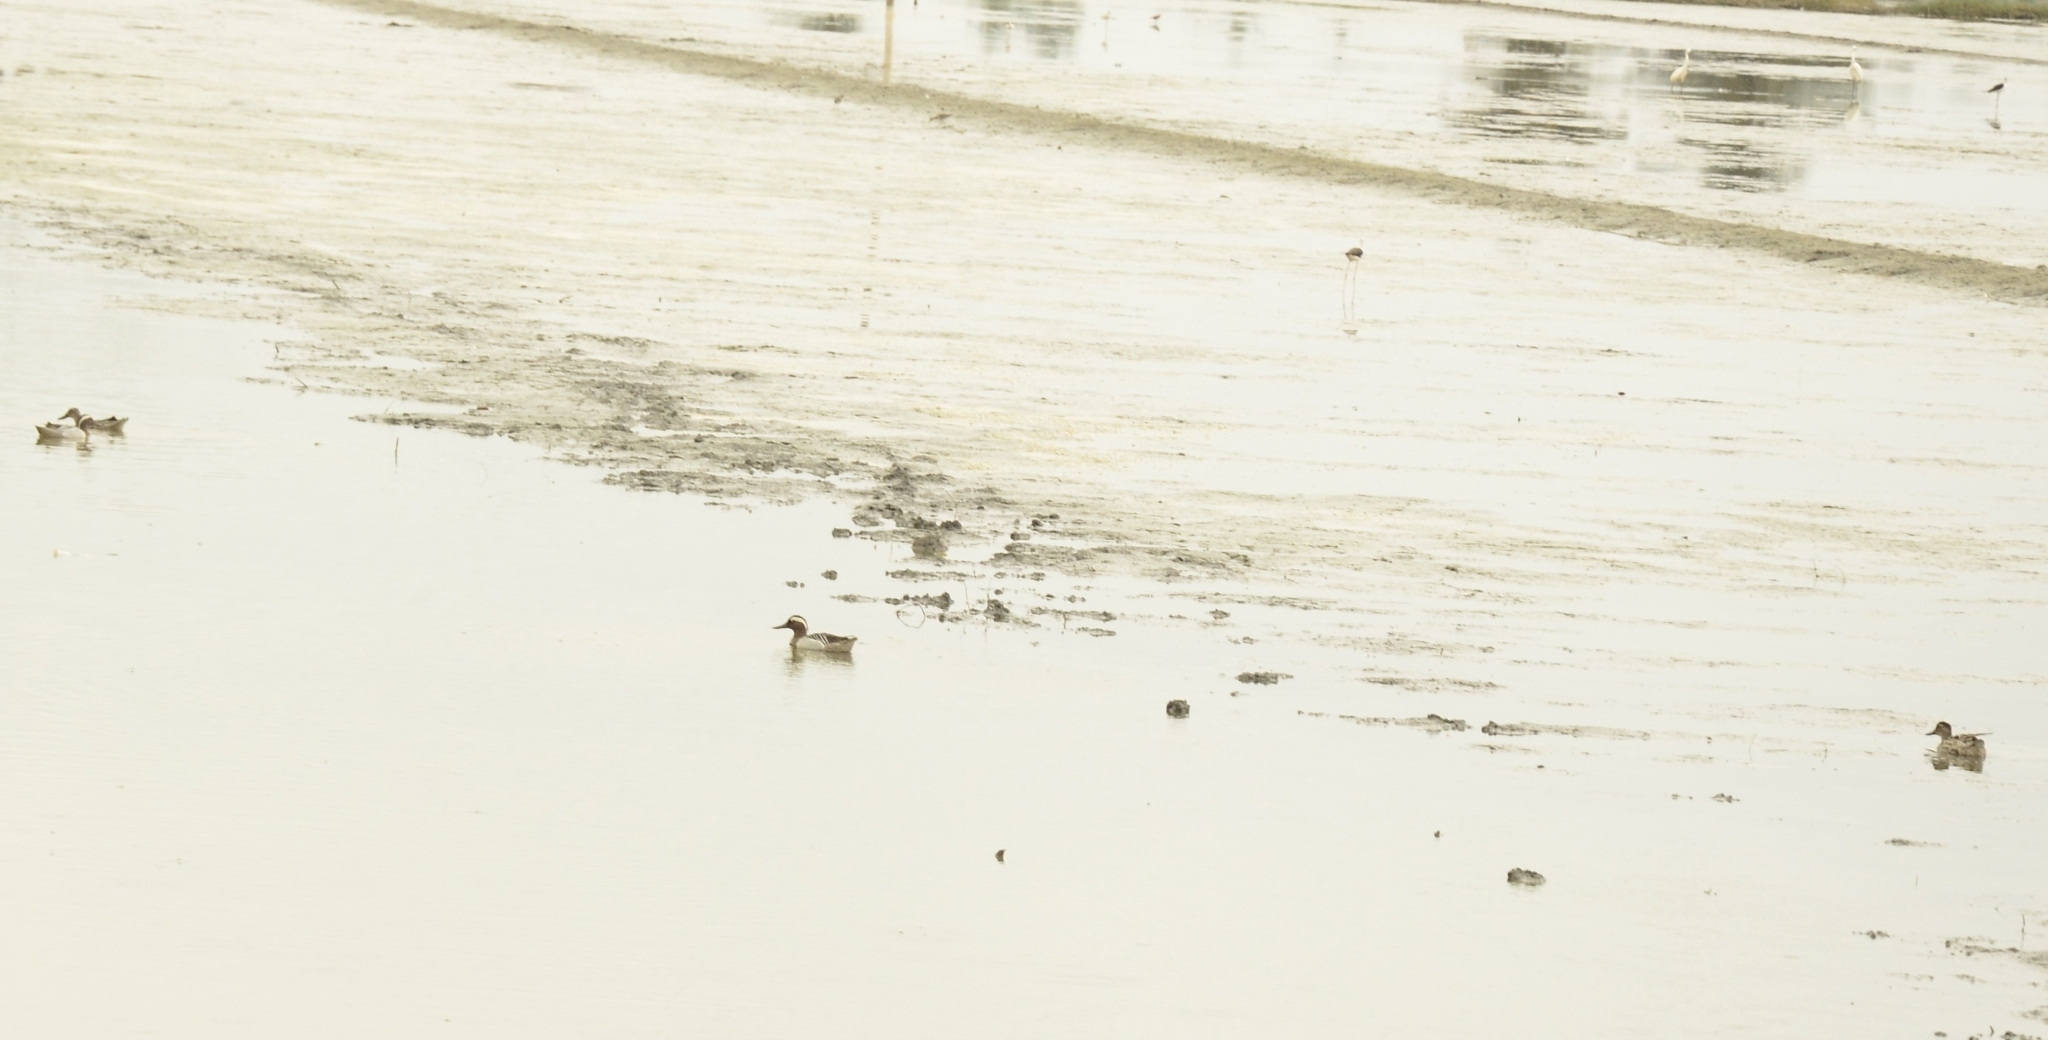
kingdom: Animalia
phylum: Chordata
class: Aves
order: Anseriformes
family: Anatidae
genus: Spatula
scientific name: Spatula querquedula
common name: Garganey
